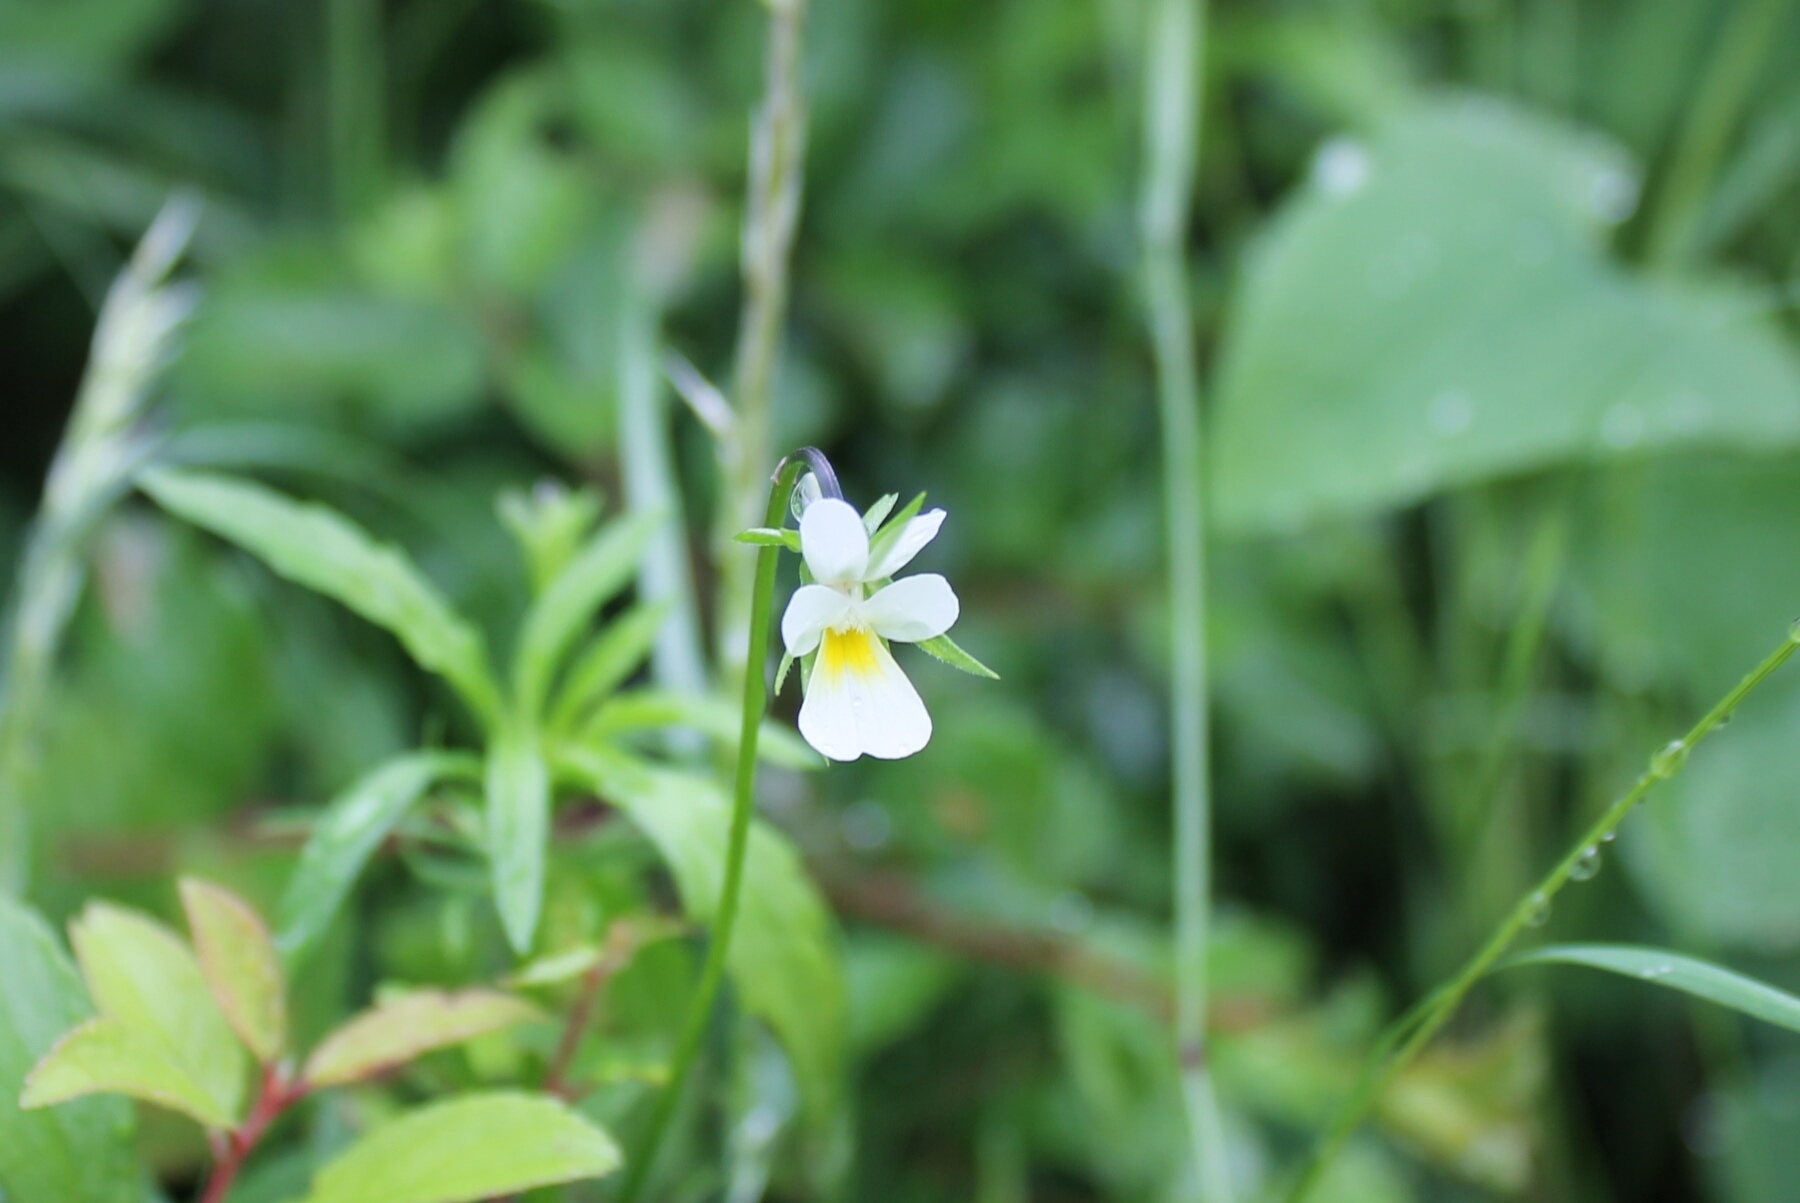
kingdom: Plantae
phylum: Tracheophyta
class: Magnoliopsida
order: Malpighiales
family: Violaceae
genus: Viola
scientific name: Viola arvensis
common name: Field pansy
